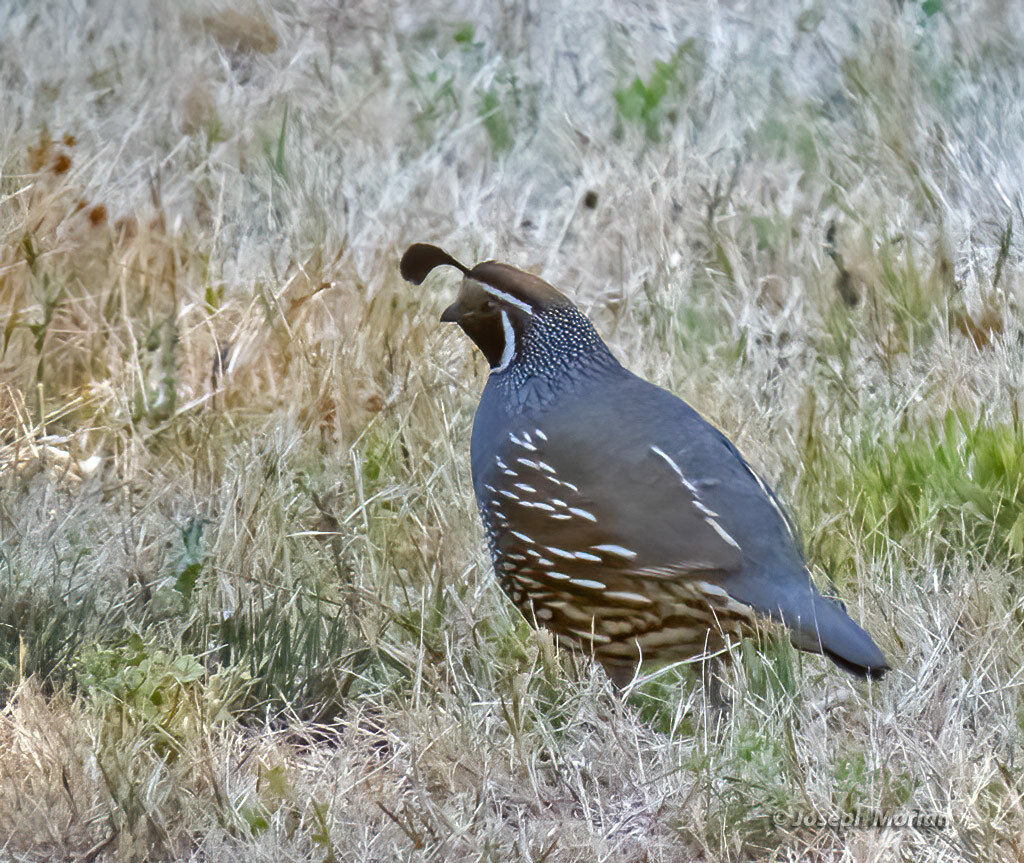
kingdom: Animalia
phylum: Chordata
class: Aves
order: Galliformes
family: Odontophoridae
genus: Callipepla
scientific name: Callipepla californica
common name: California quail
